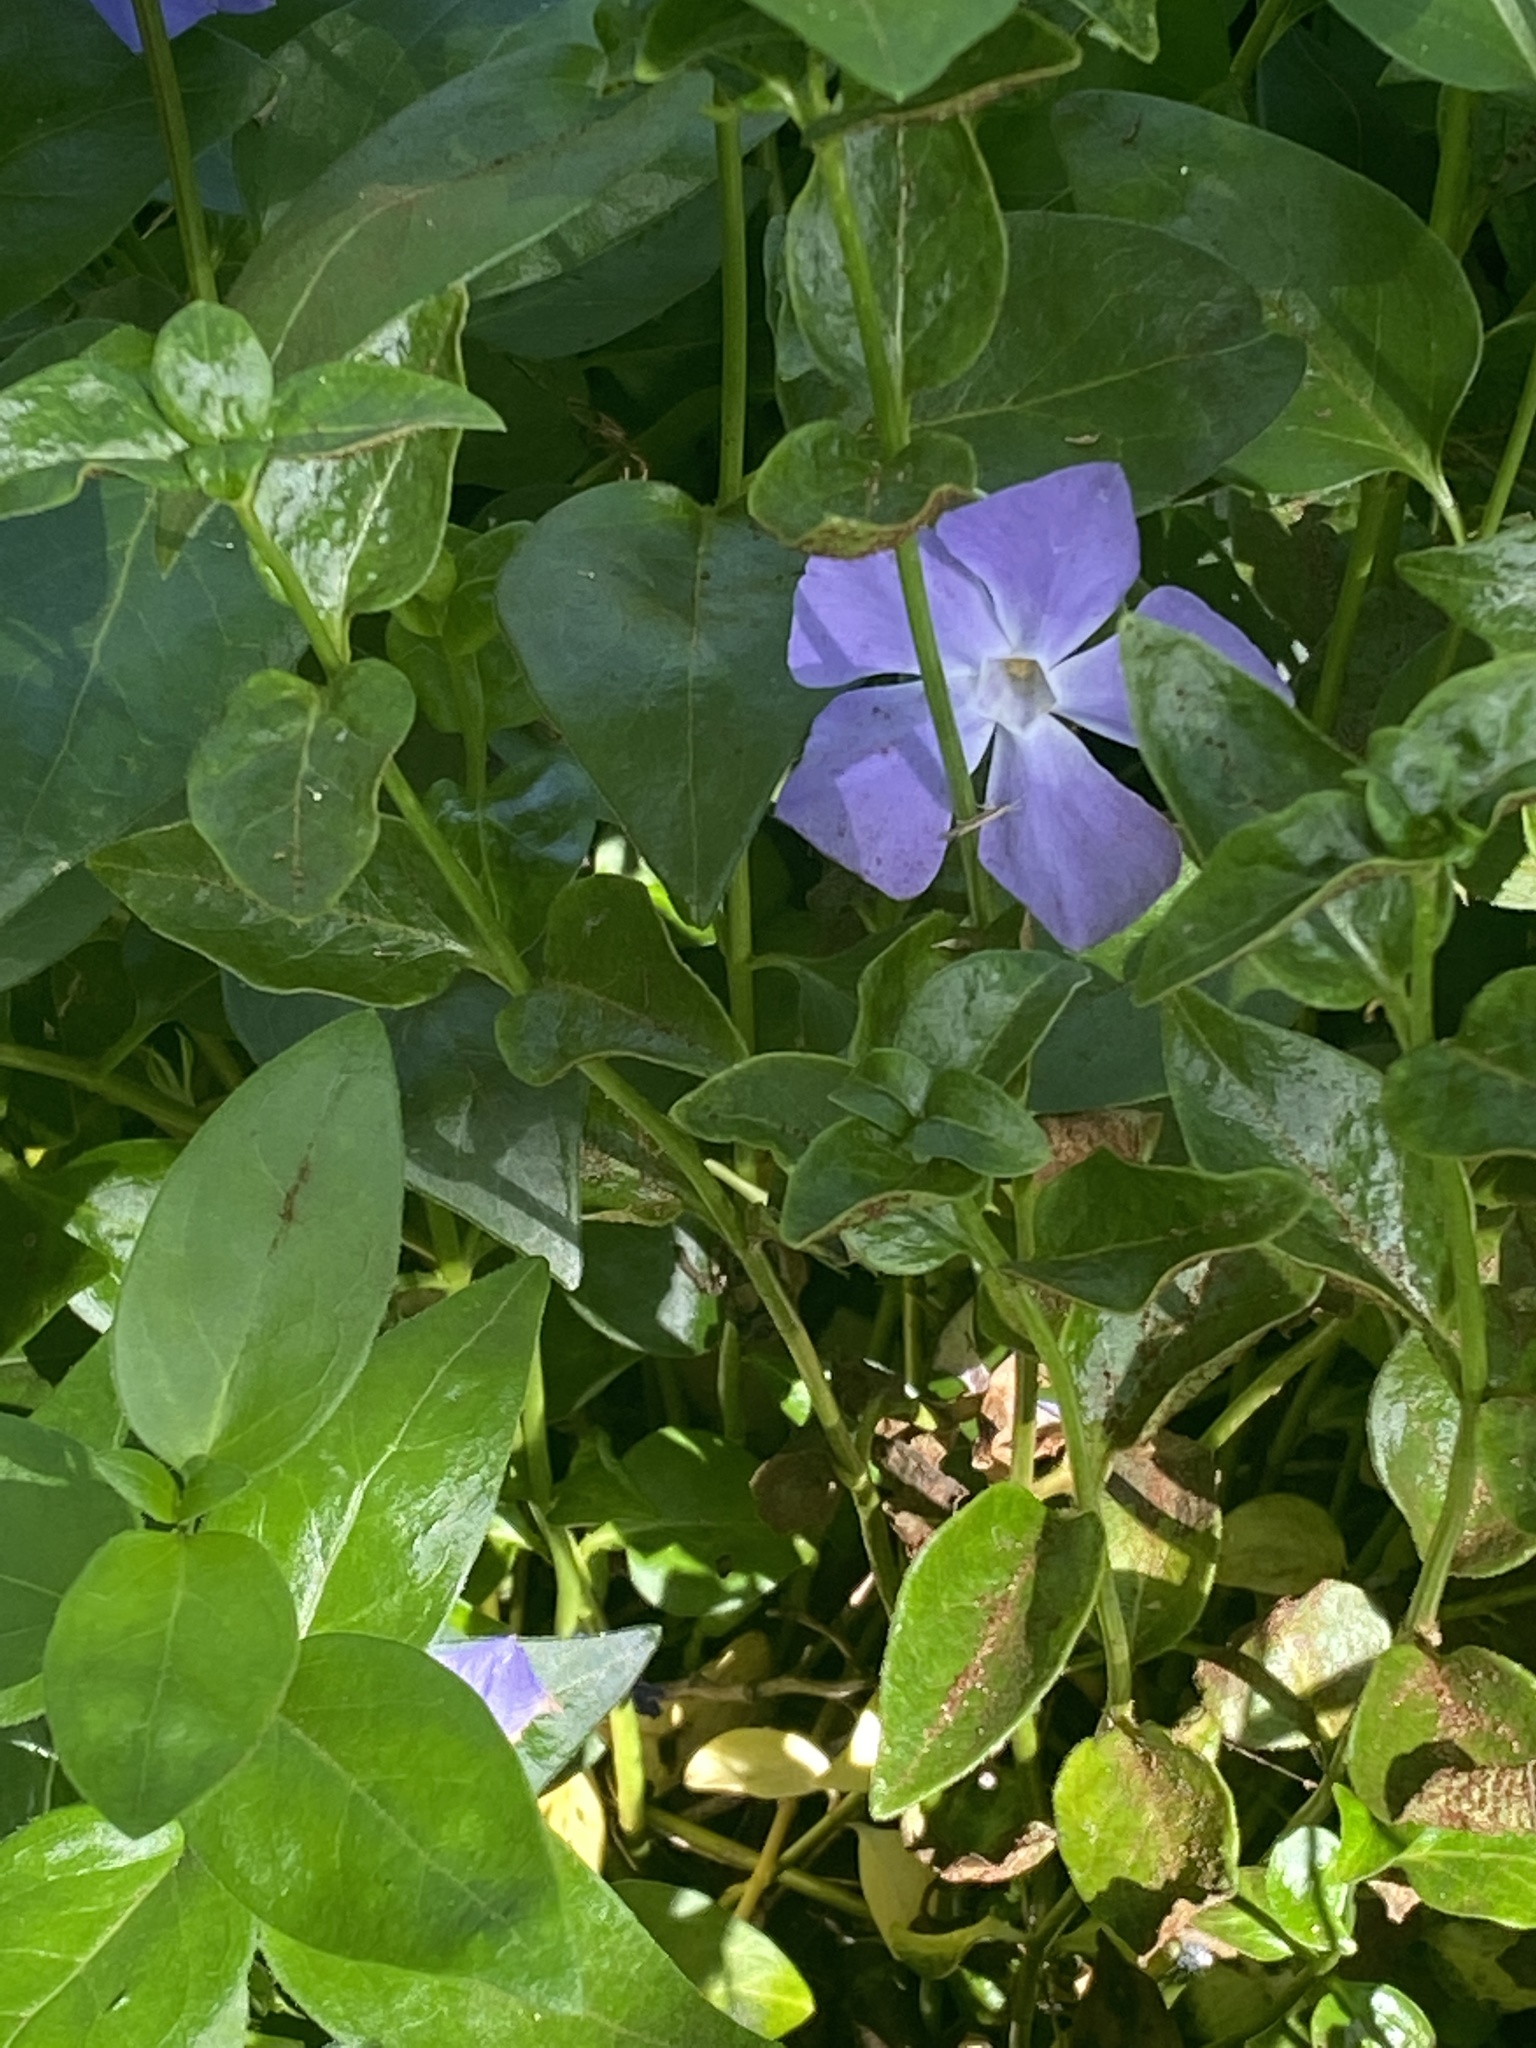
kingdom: Plantae
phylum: Tracheophyta
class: Magnoliopsida
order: Gentianales
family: Apocynaceae
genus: Vinca
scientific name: Vinca major
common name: Greater periwinkle
